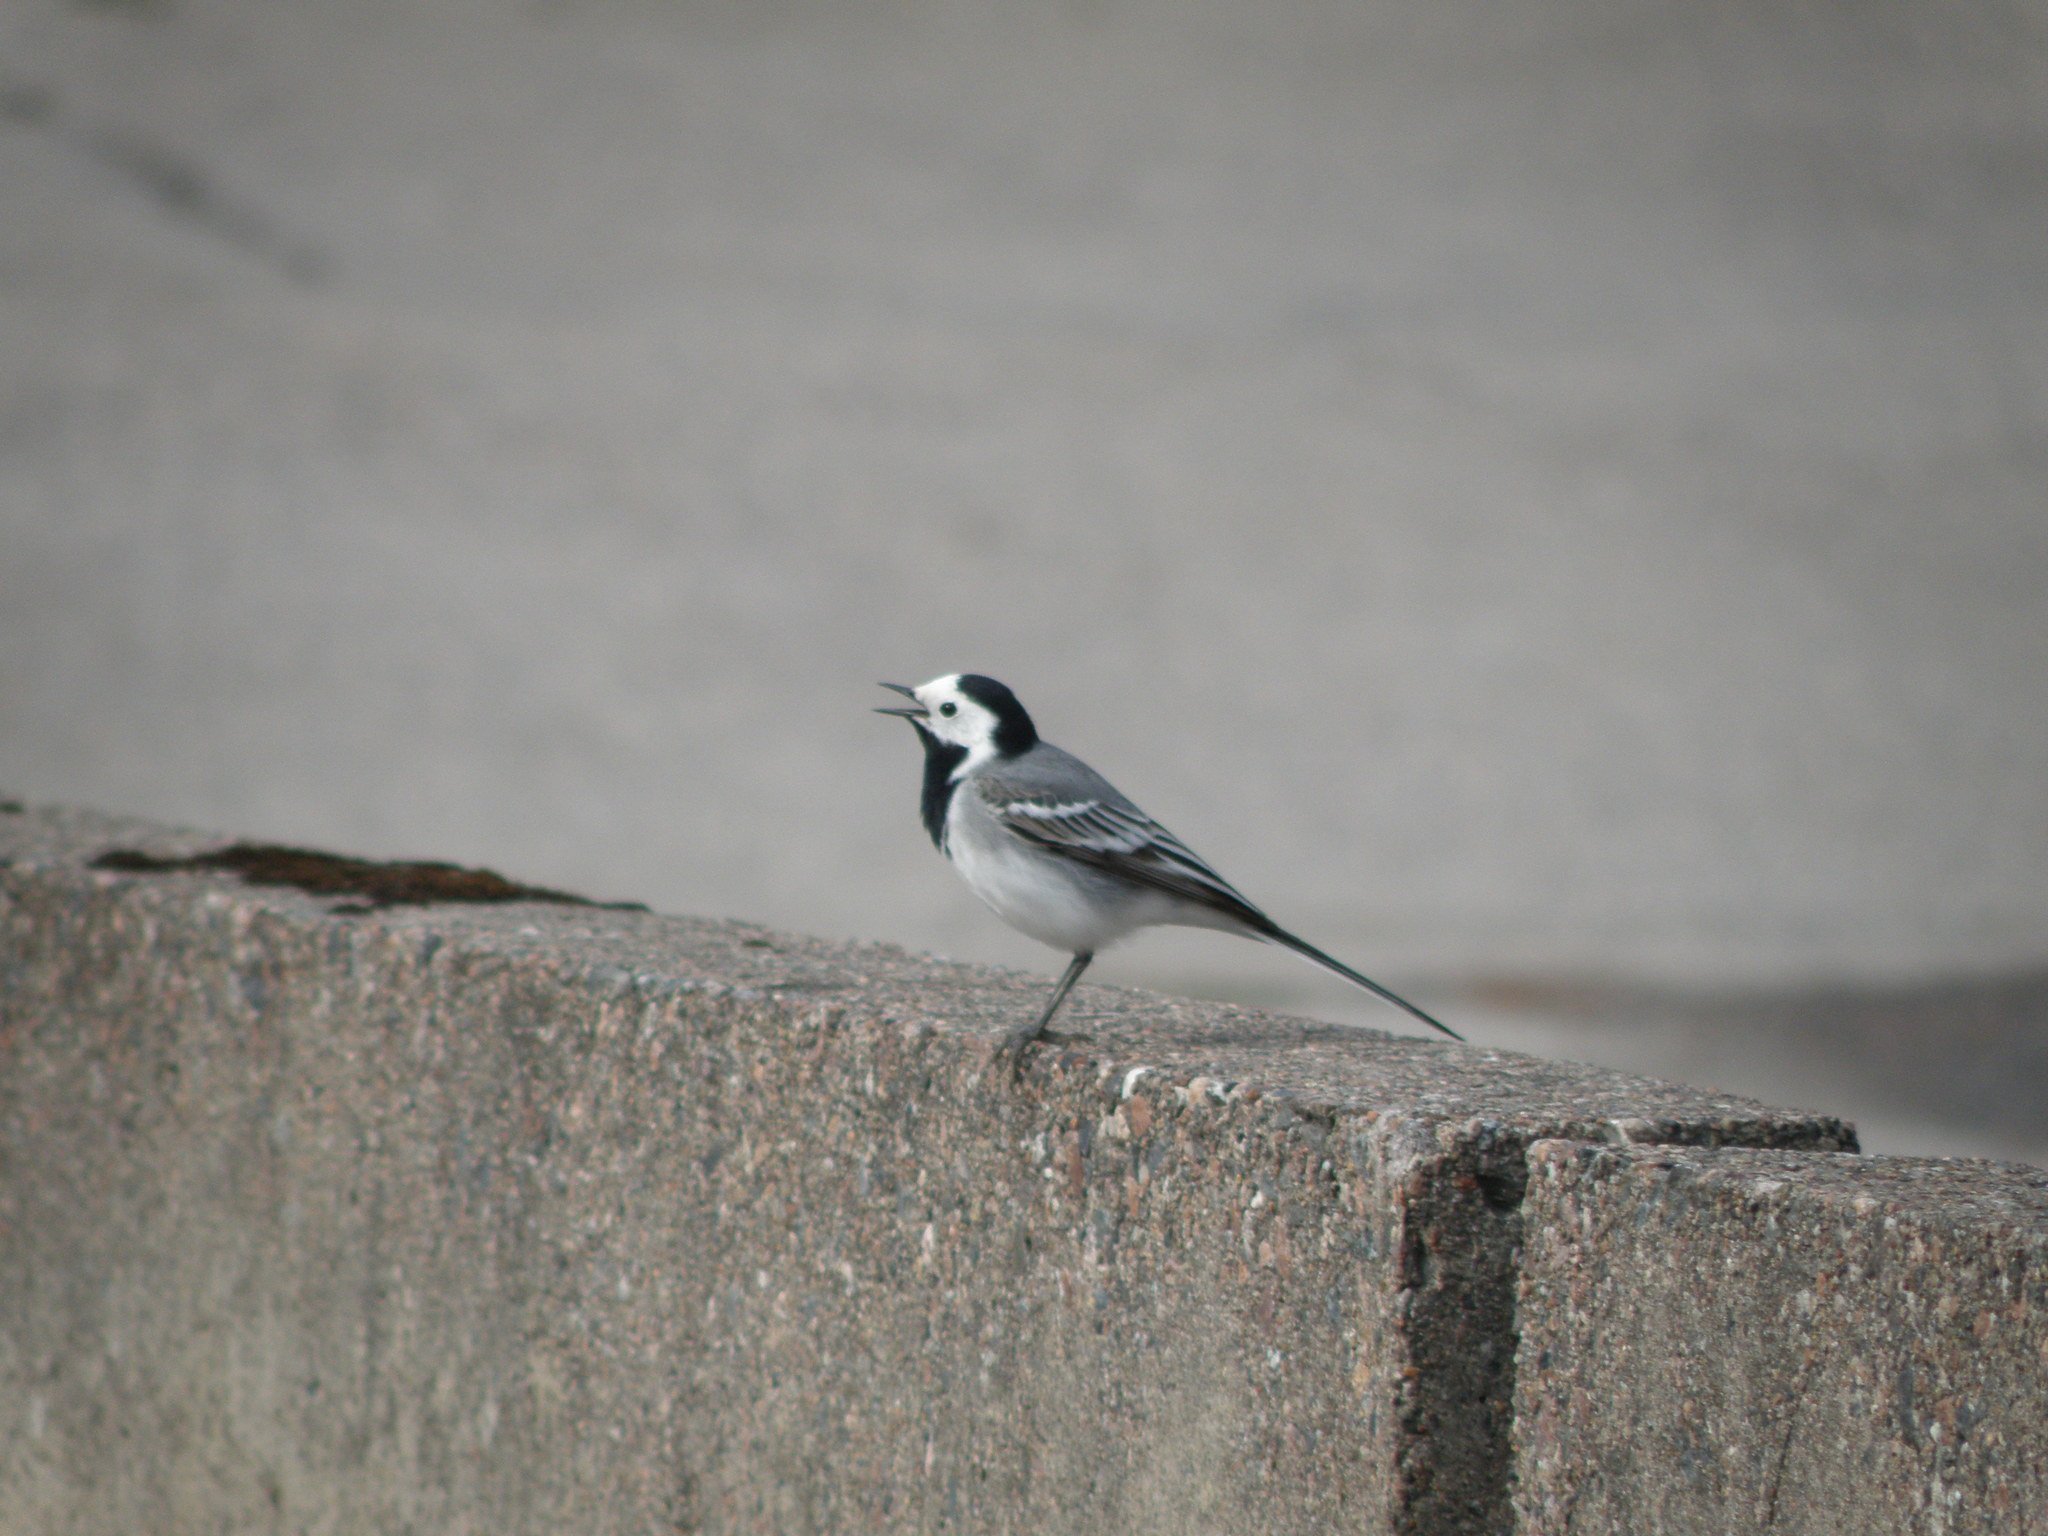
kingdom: Animalia
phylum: Chordata
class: Aves
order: Passeriformes
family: Motacillidae
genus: Motacilla
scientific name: Motacilla alba
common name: White wagtail
